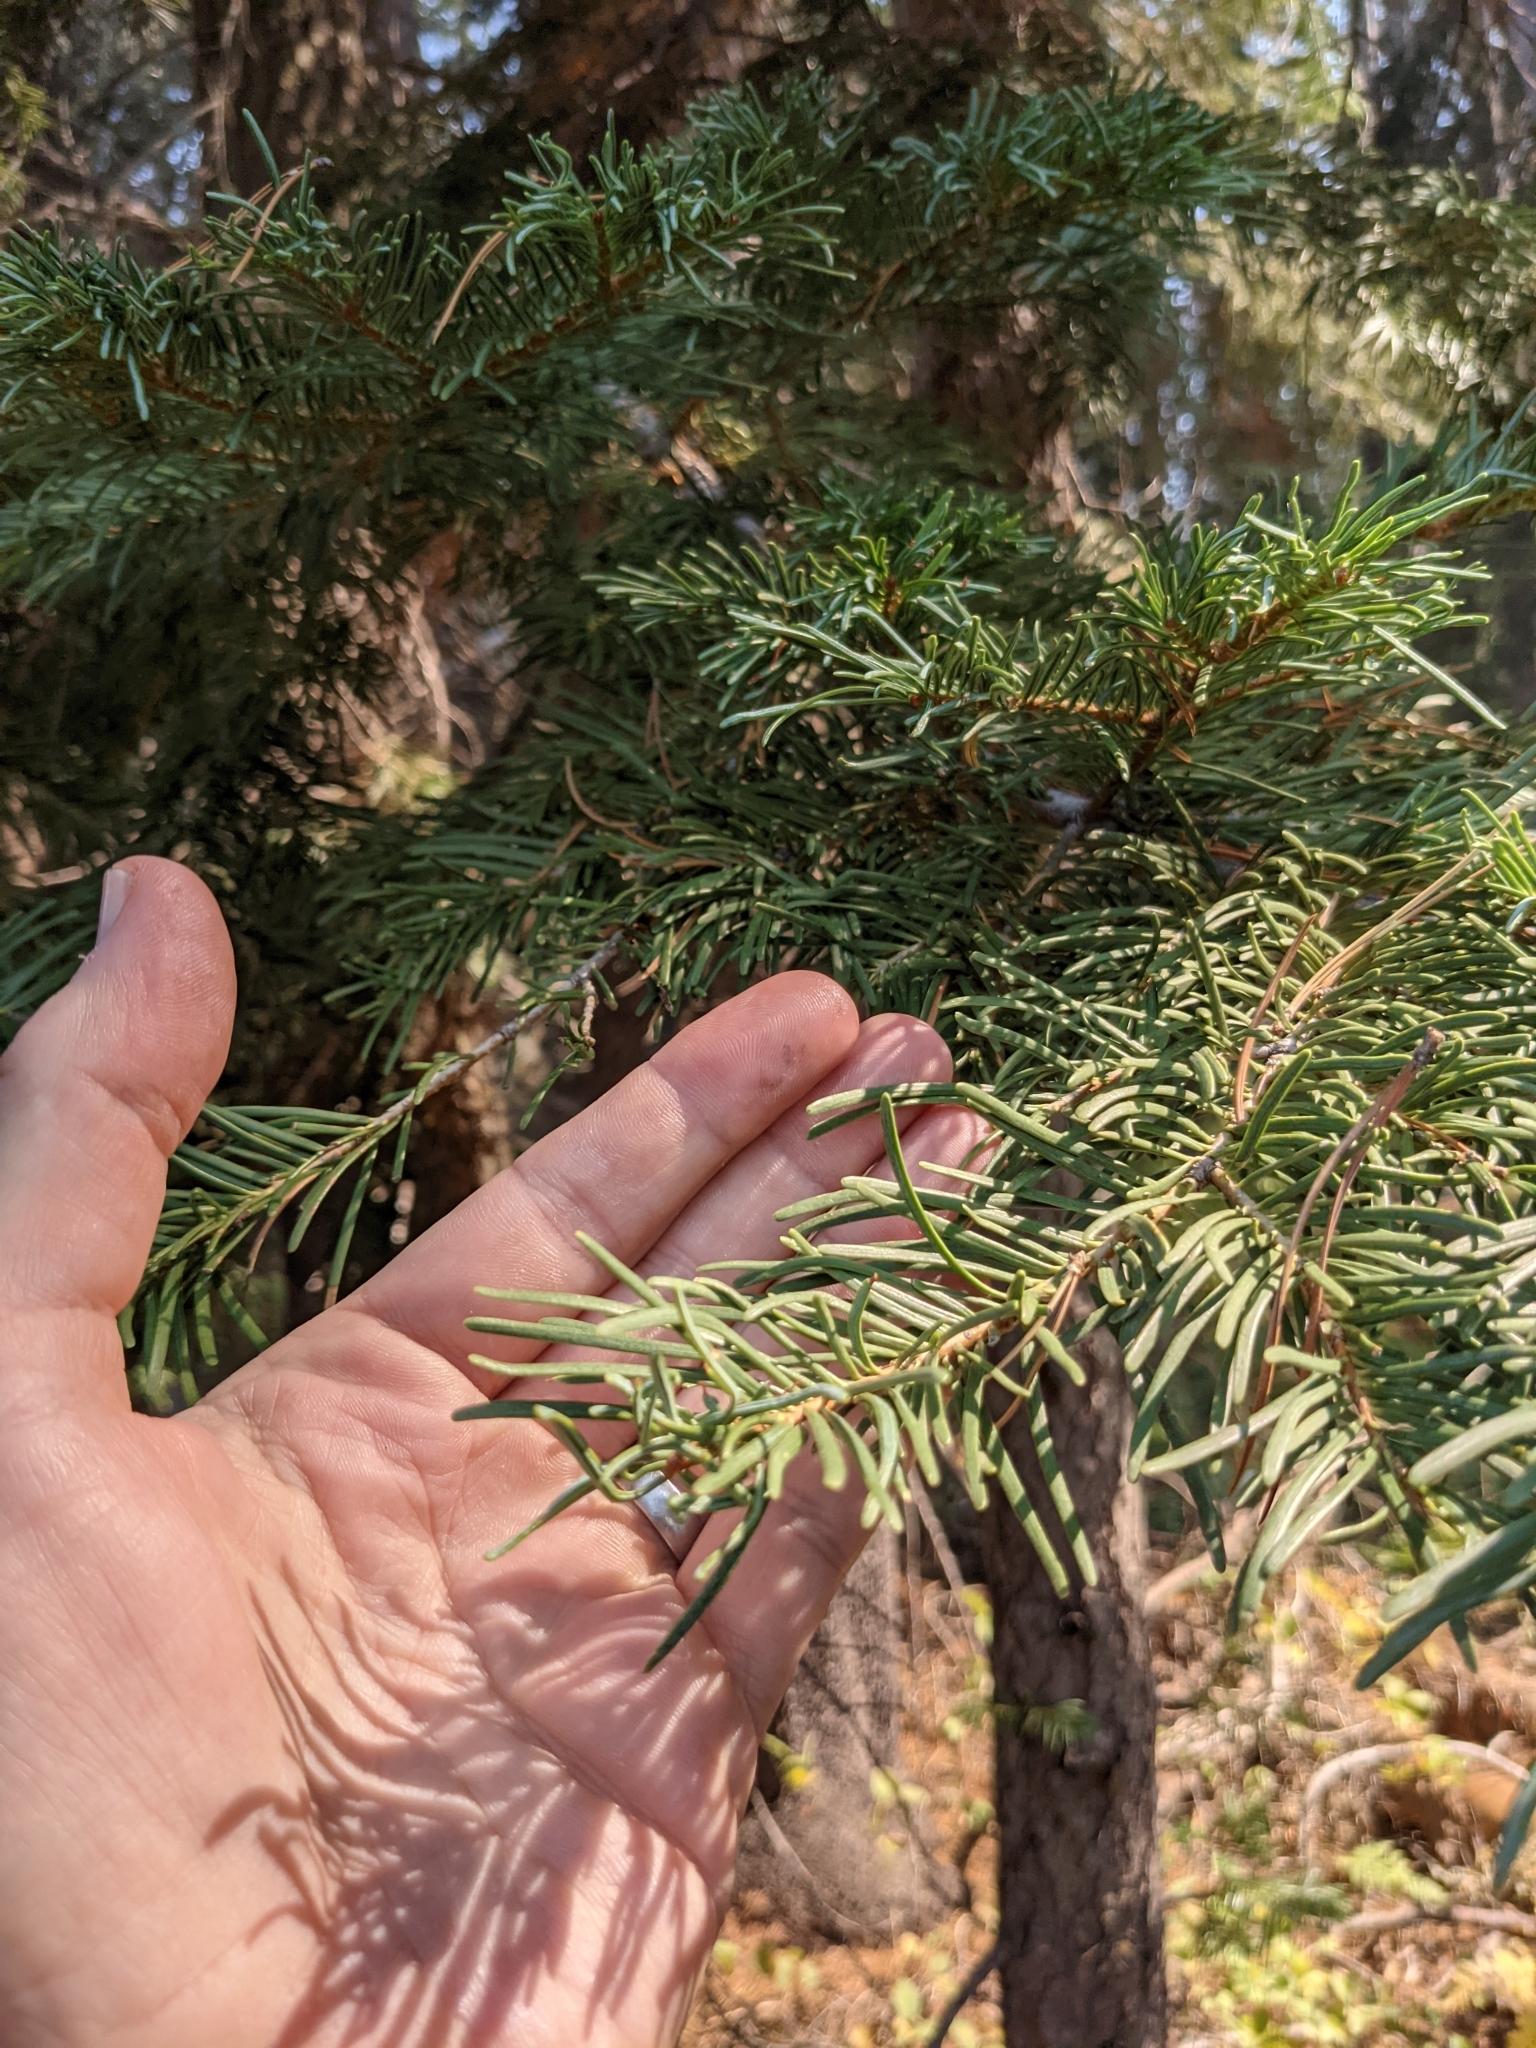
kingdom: Plantae
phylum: Tracheophyta
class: Pinopsida
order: Pinales
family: Pinaceae
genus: Abies
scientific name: Abies concolor
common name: Colorado fir
